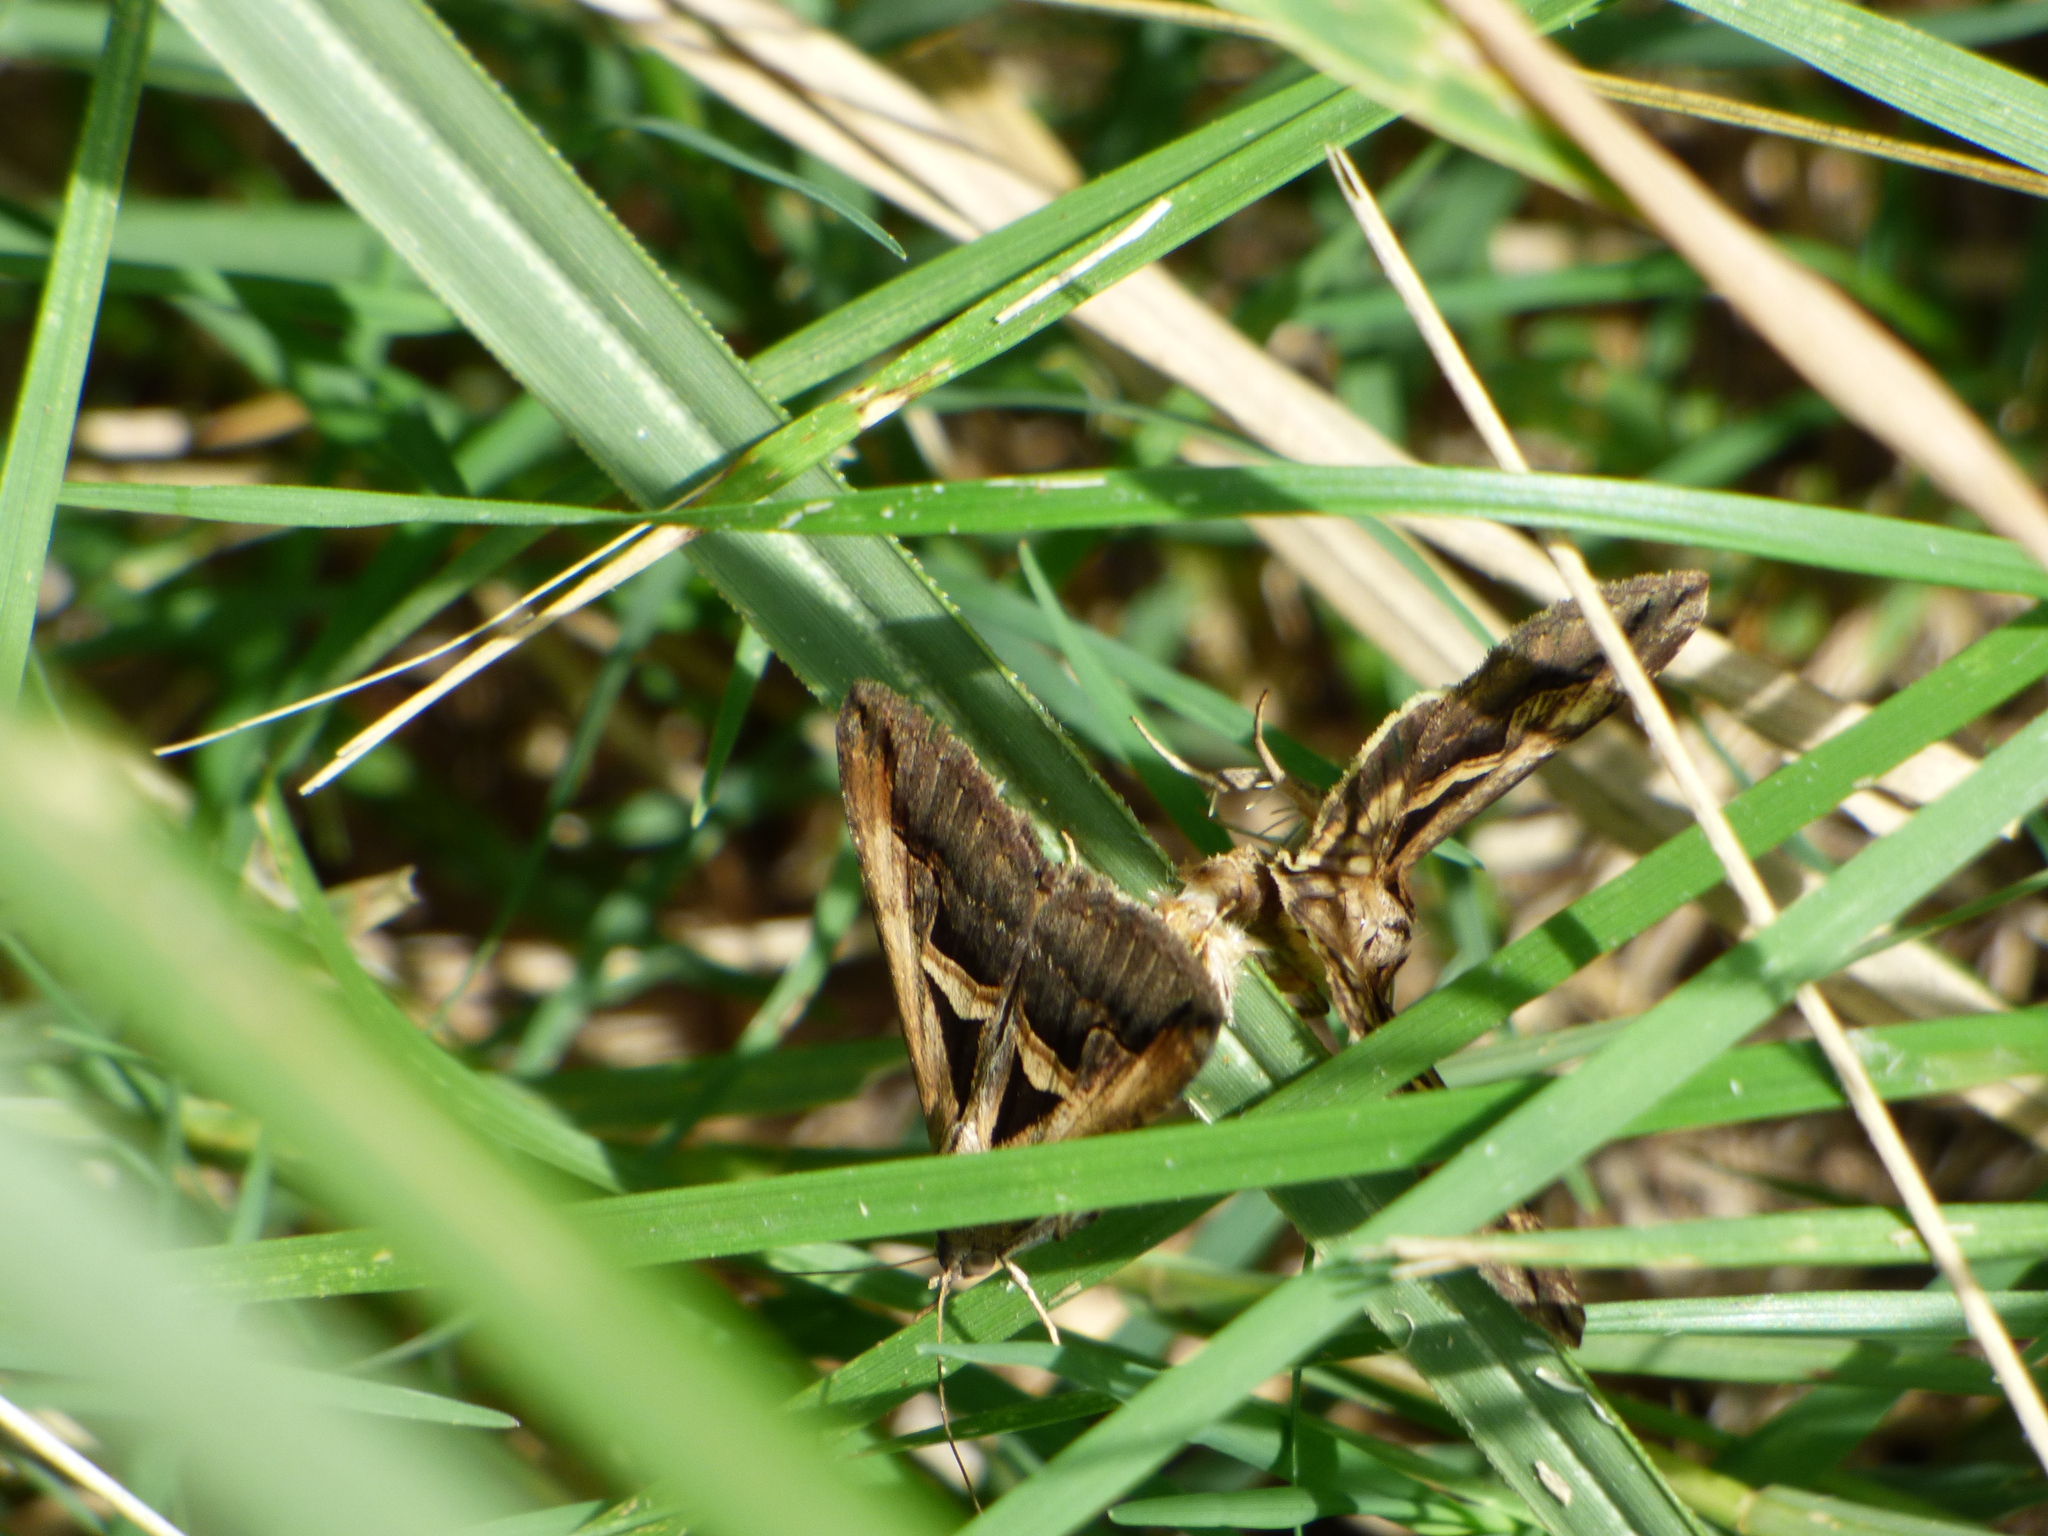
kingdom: Animalia
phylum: Arthropoda
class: Insecta
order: Lepidoptera
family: Erebidae
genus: Melipotis
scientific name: Melipotis cellaris
